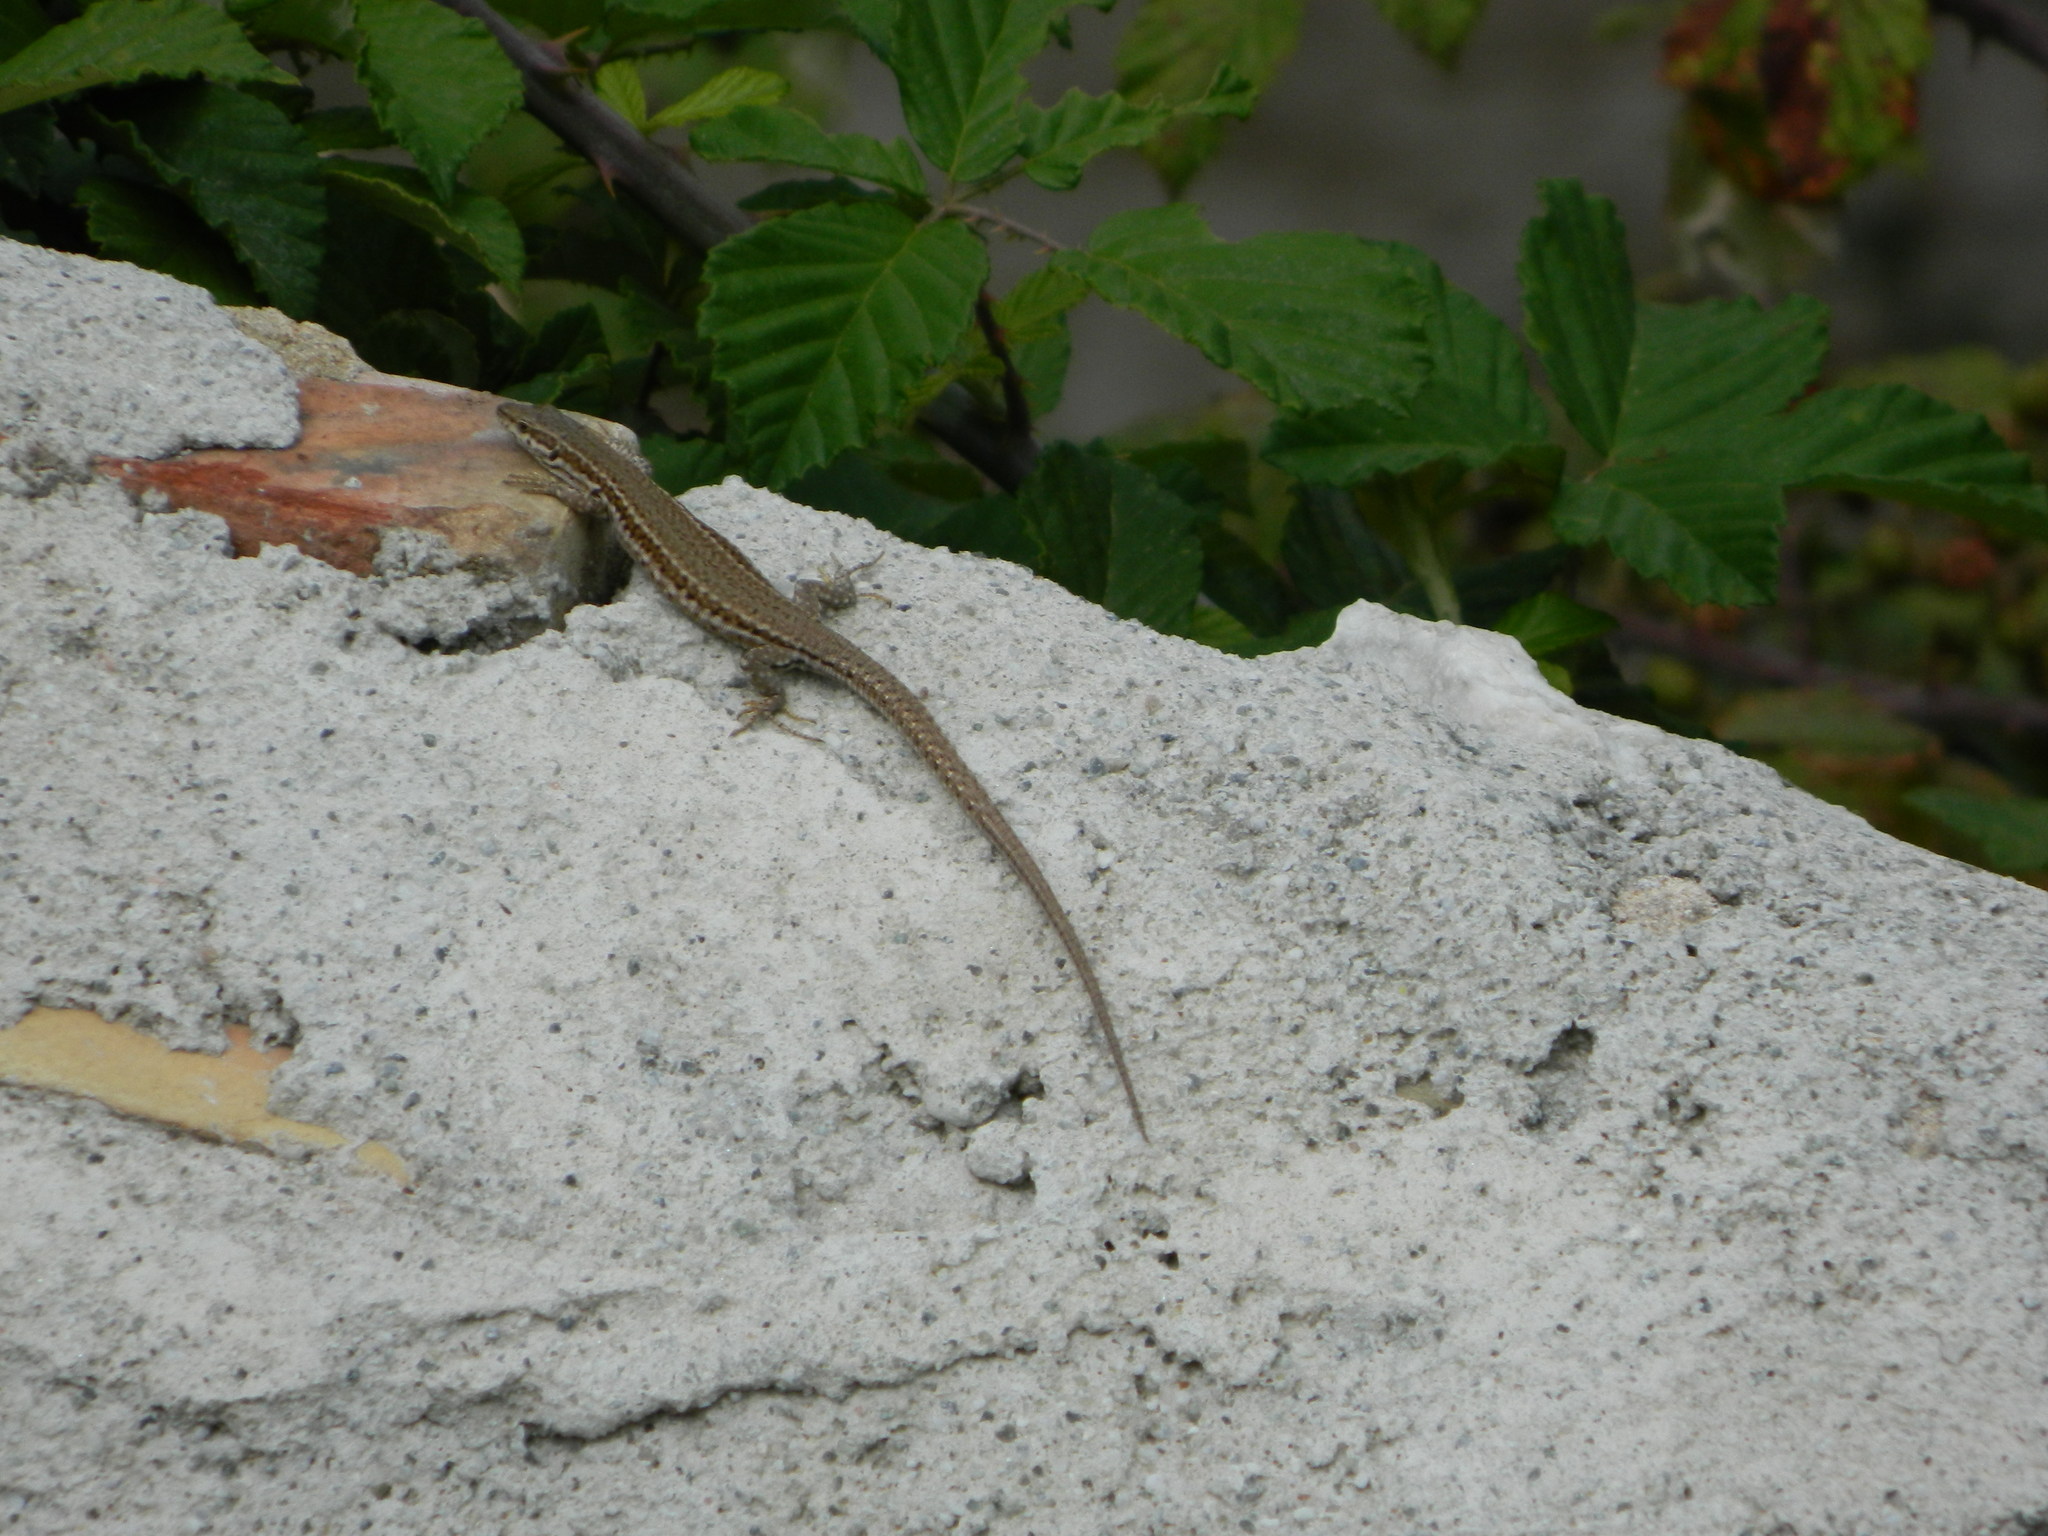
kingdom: Animalia
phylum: Chordata
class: Squamata
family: Lacertidae
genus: Podarcis
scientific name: Podarcis liolepis
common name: Catalonian wall lizard
